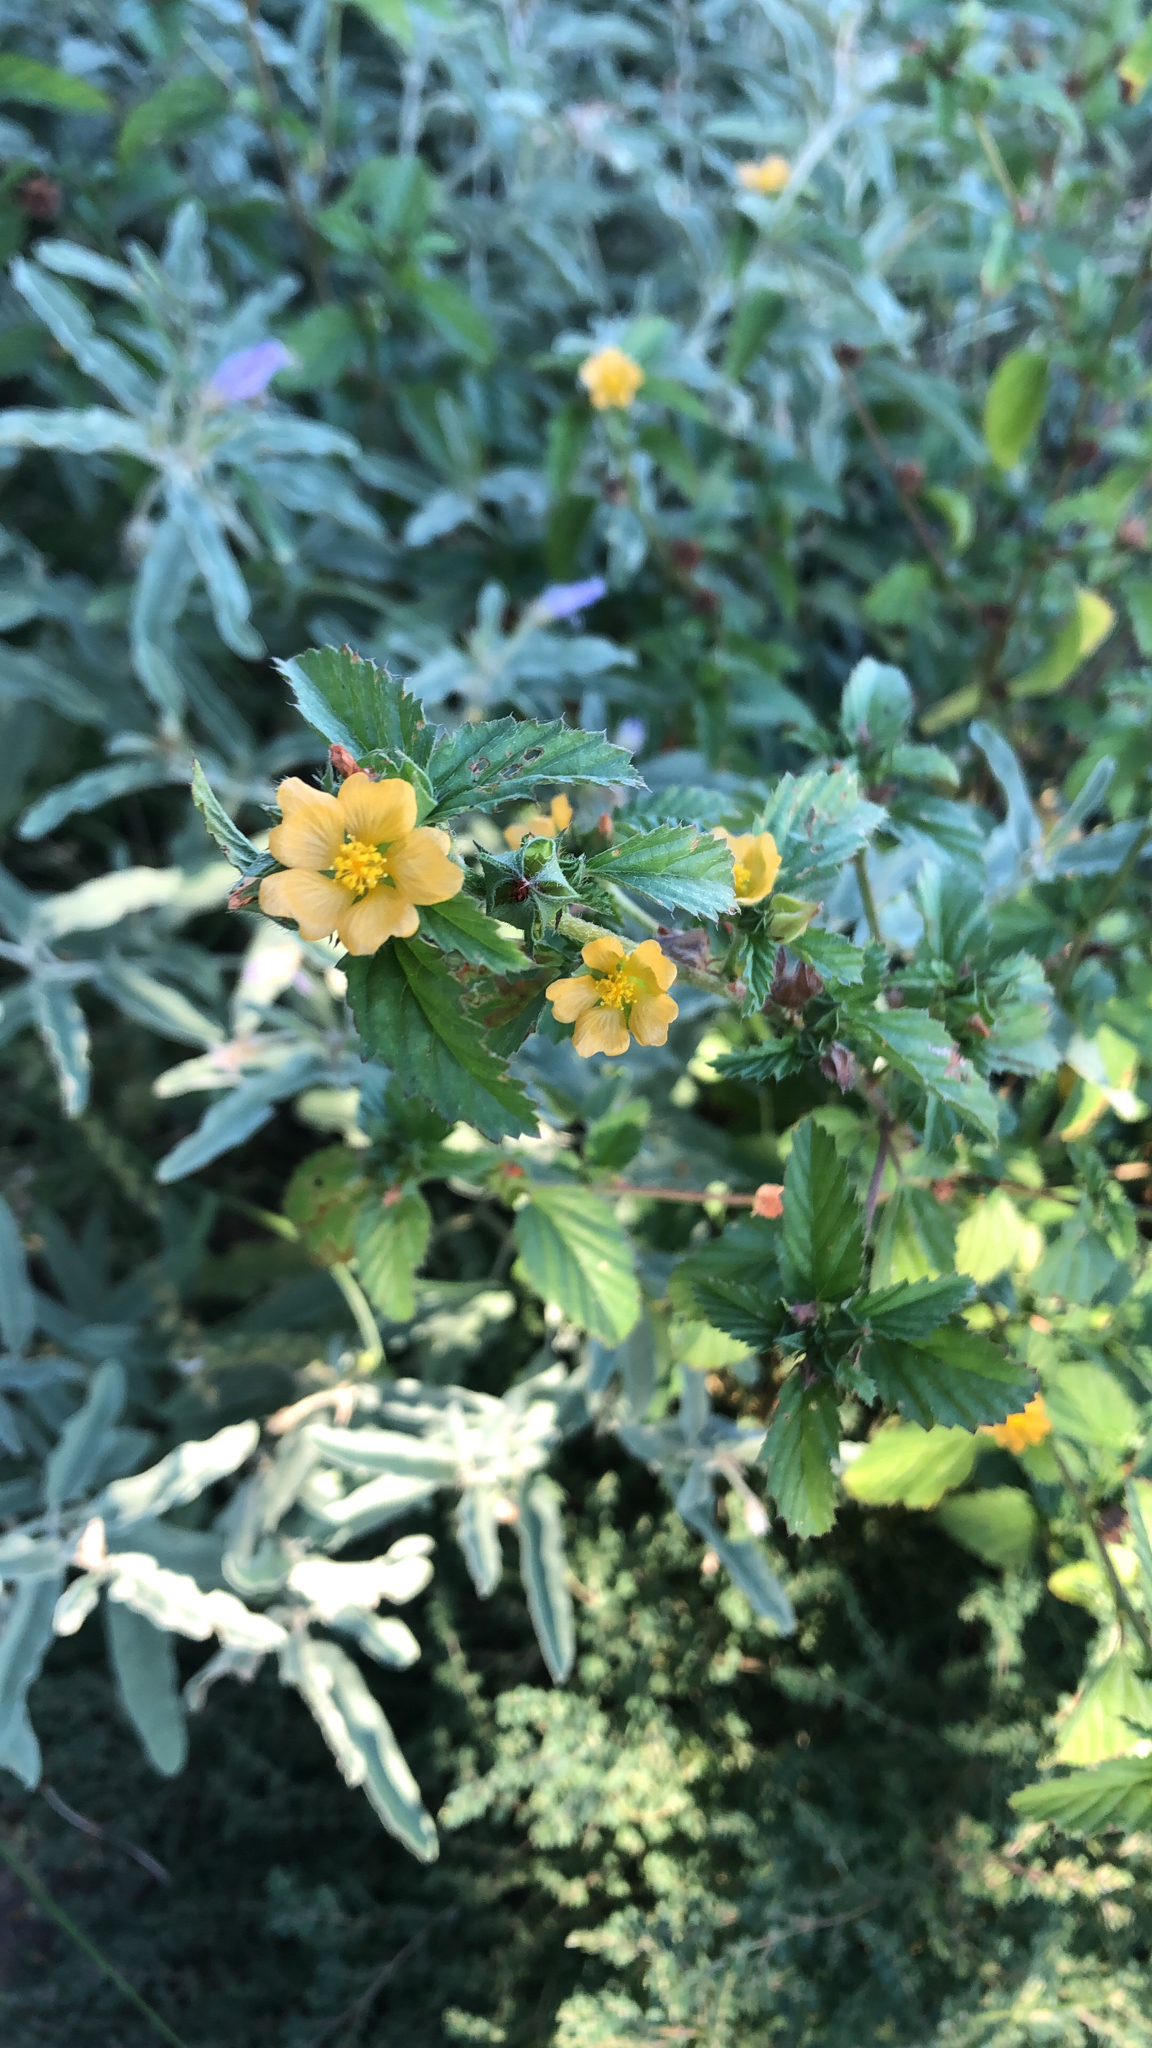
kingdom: Plantae
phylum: Tracheophyta
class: Magnoliopsida
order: Malvales
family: Malvaceae
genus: Malvastrum
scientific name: Malvastrum coromandelianum
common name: Threelobe false mallow
